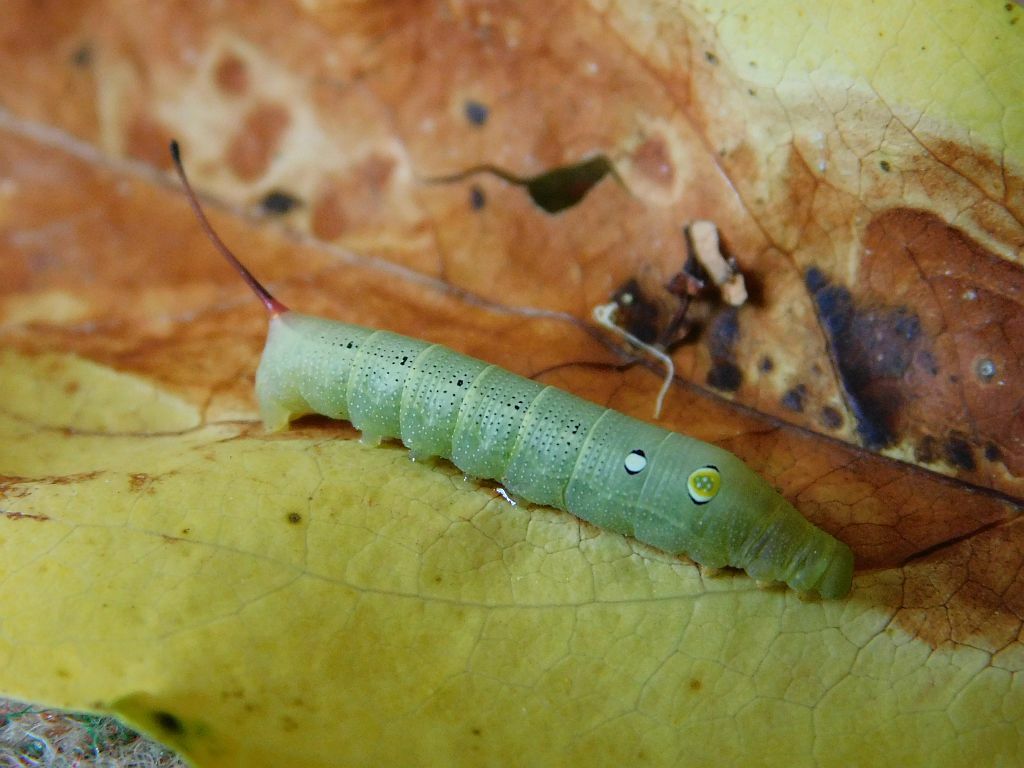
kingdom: Animalia
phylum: Arthropoda
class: Insecta
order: Lepidoptera
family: Sphingidae
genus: Hippotion
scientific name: Hippotion celerio
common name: Silver-striped hawk-moth
